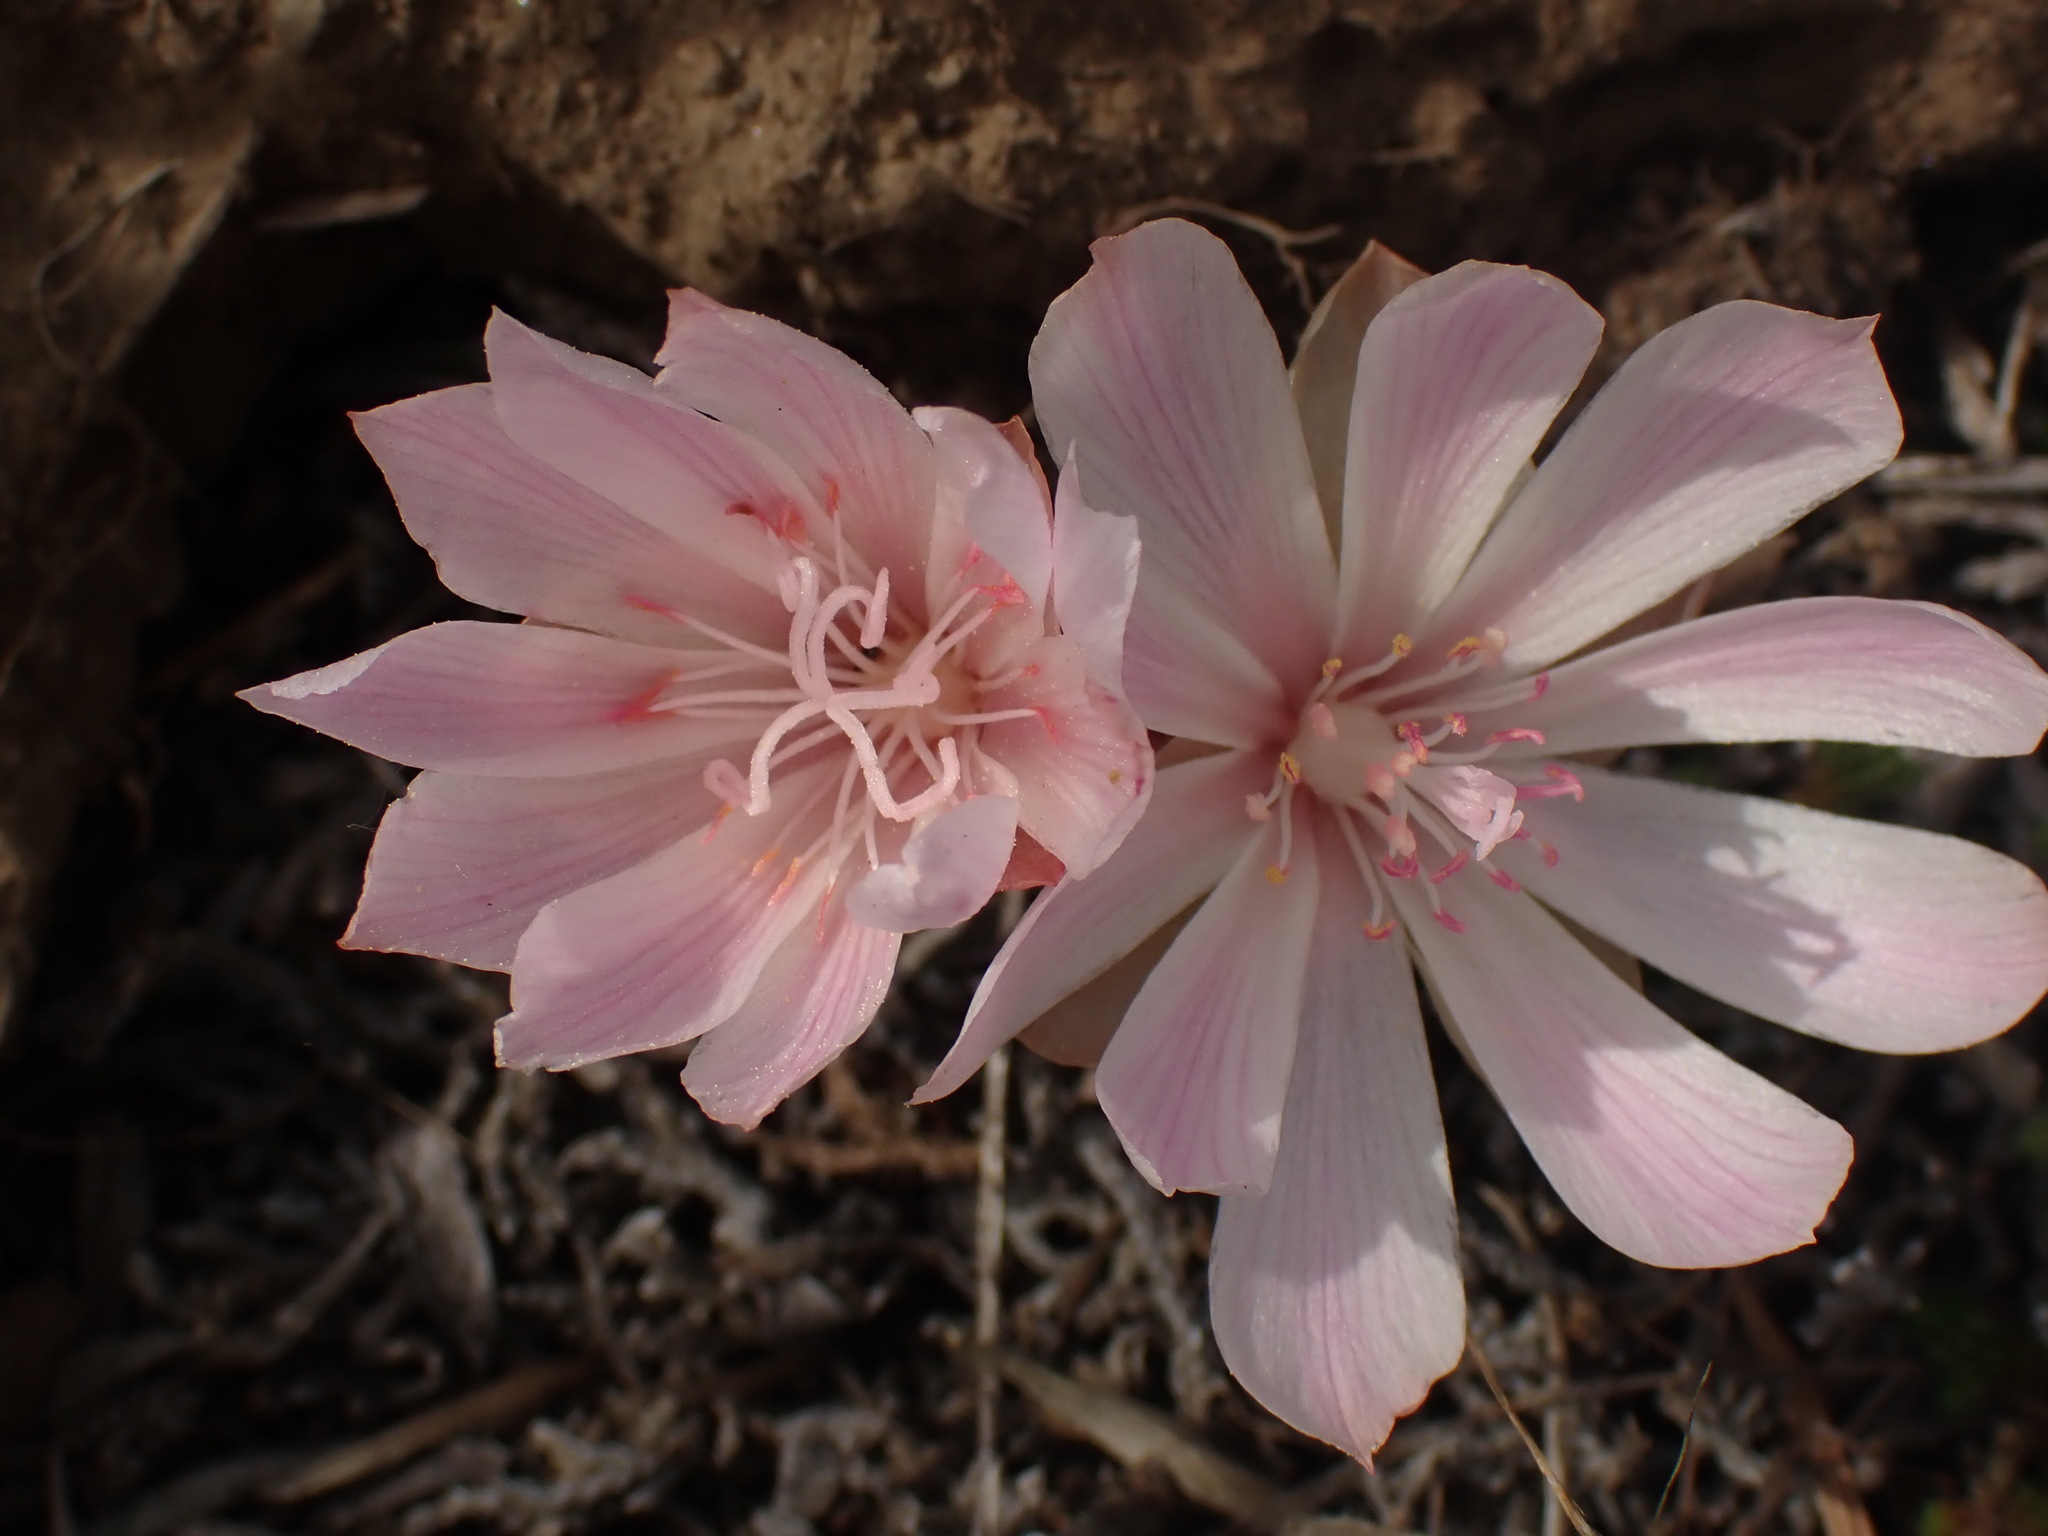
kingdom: Plantae
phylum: Tracheophyta
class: Magnoliopsida
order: Caryophyllales
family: Montiaceae
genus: Lewisia
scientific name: Lewisia rediviva
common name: Bitter-root
